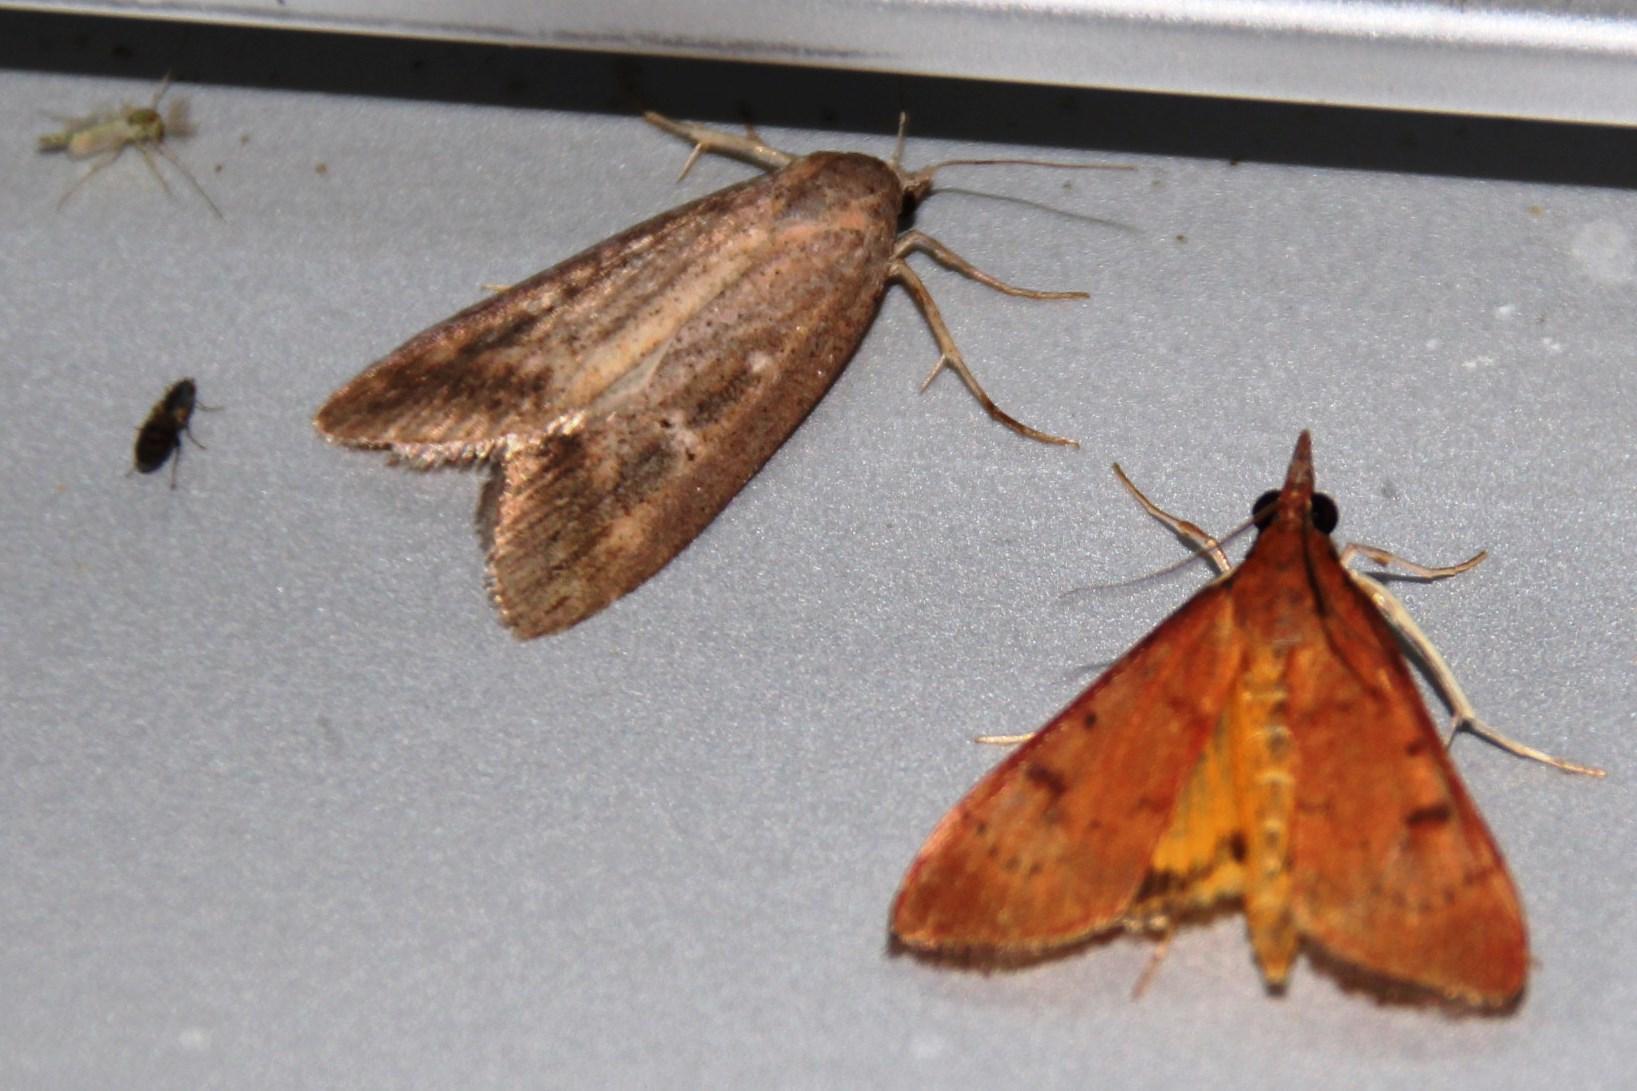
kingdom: Animalia
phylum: Arthropoda
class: Insecta
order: Lepidoptera
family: Crambidae
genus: Uresiphita
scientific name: Uresiphita gilvata
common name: Yellow-underwing pearl
